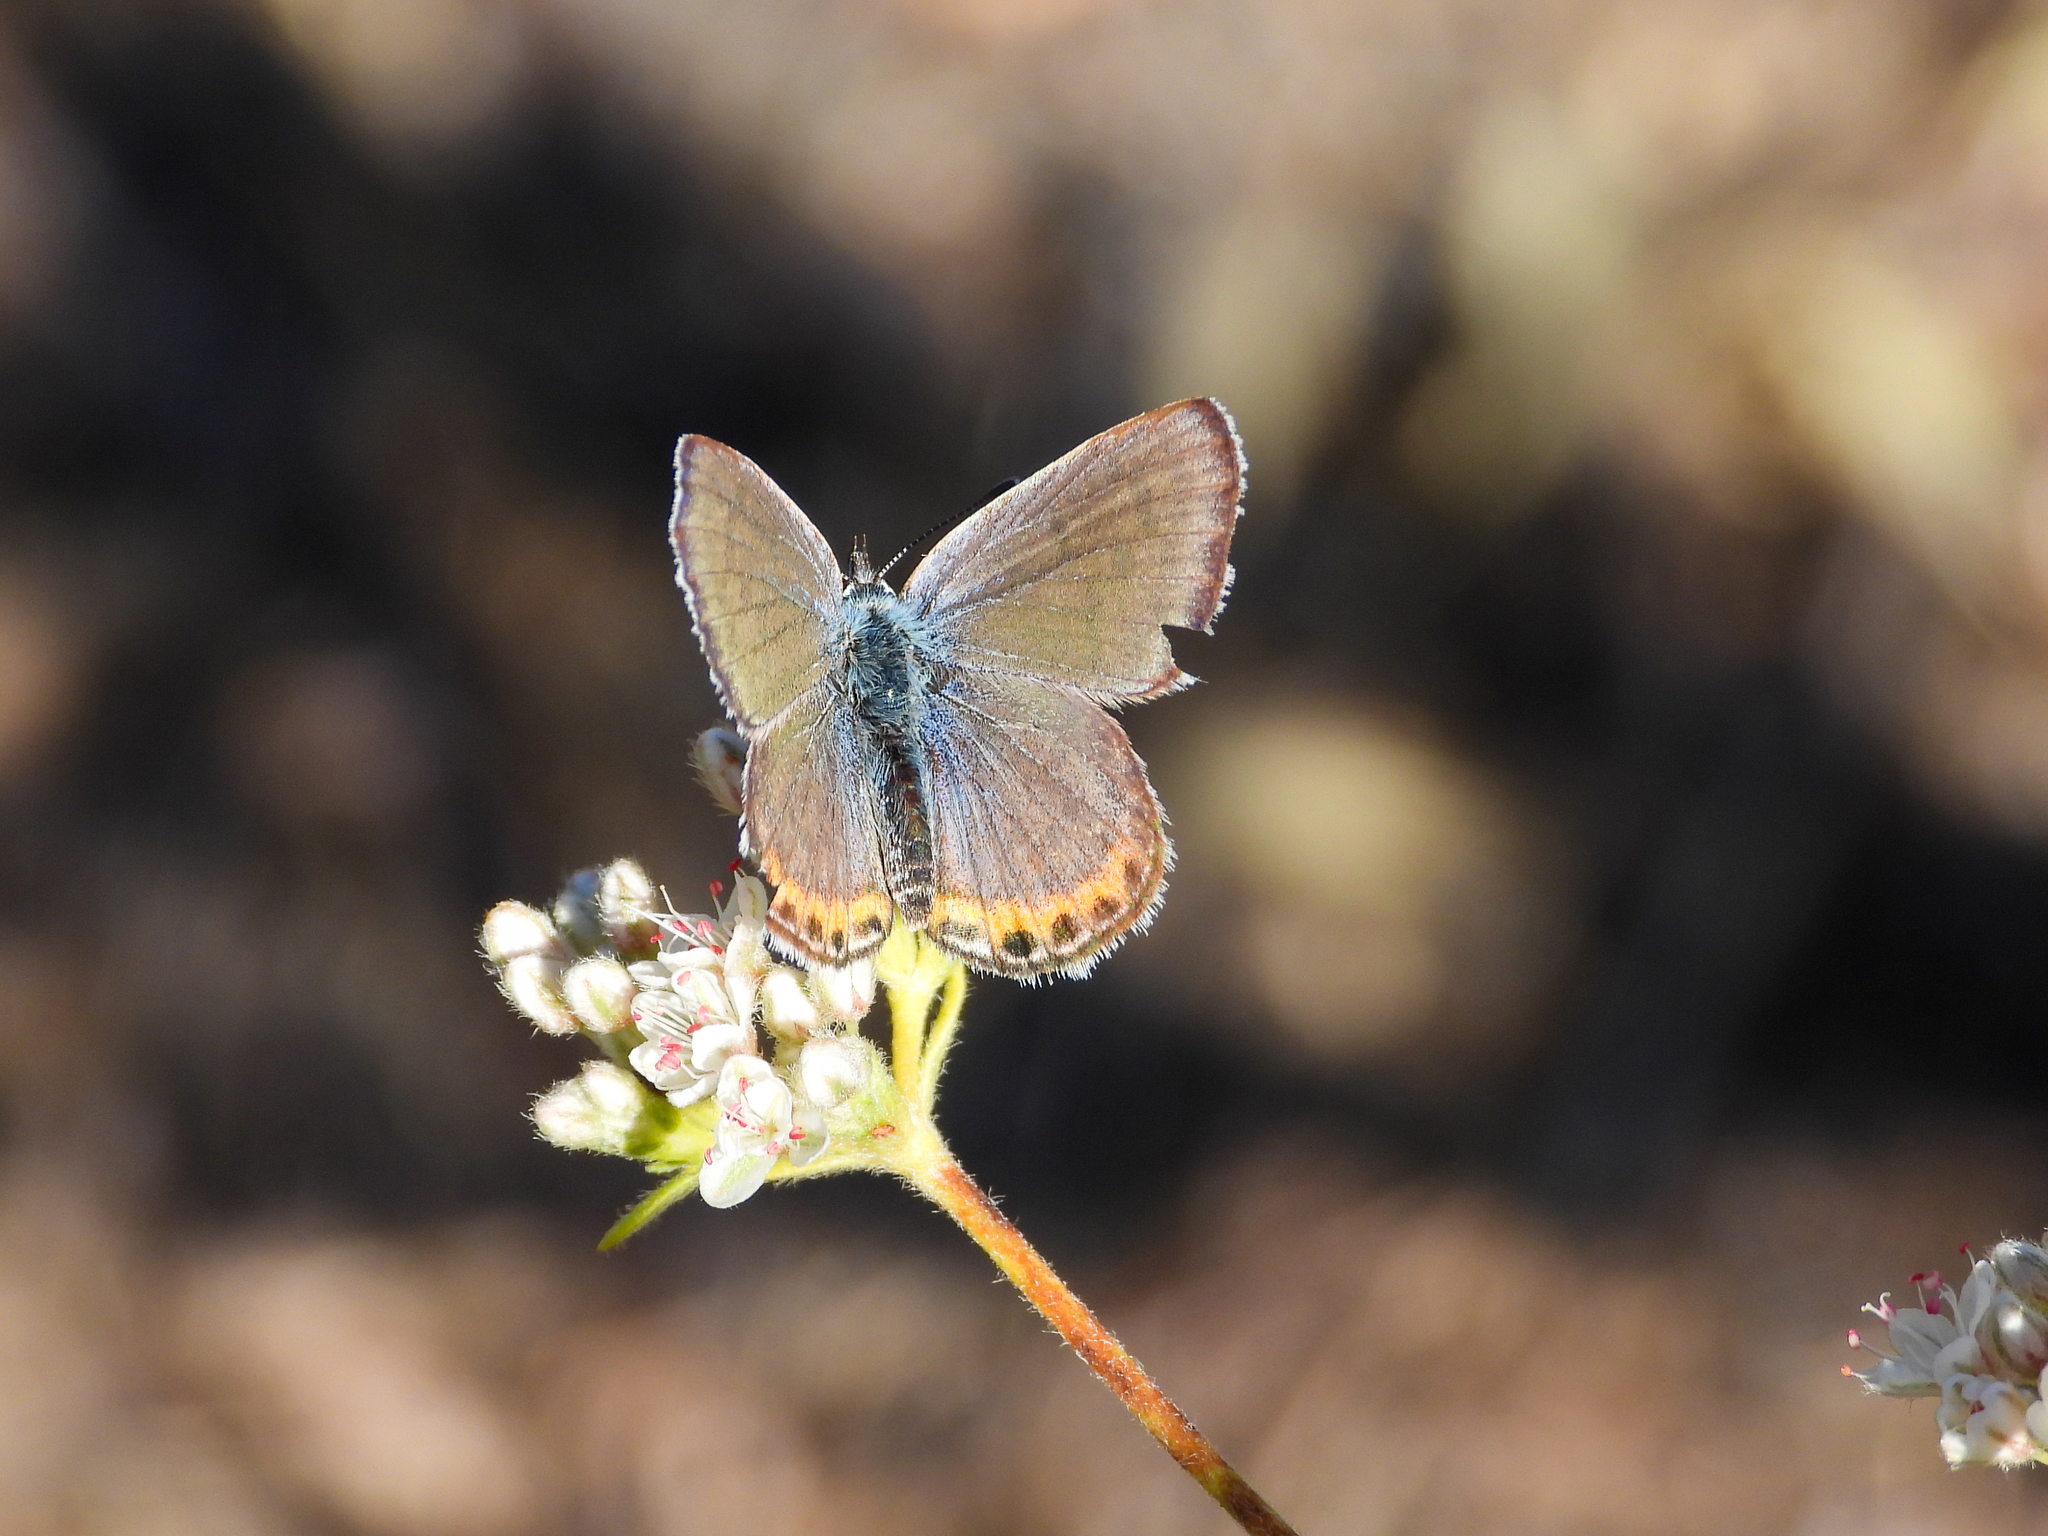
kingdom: Animalia
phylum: Arthropoda
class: Insecta
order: Lepidoptera
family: Lycaenidae
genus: Icaricia
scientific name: Icaricia acmon
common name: Acmon blue
